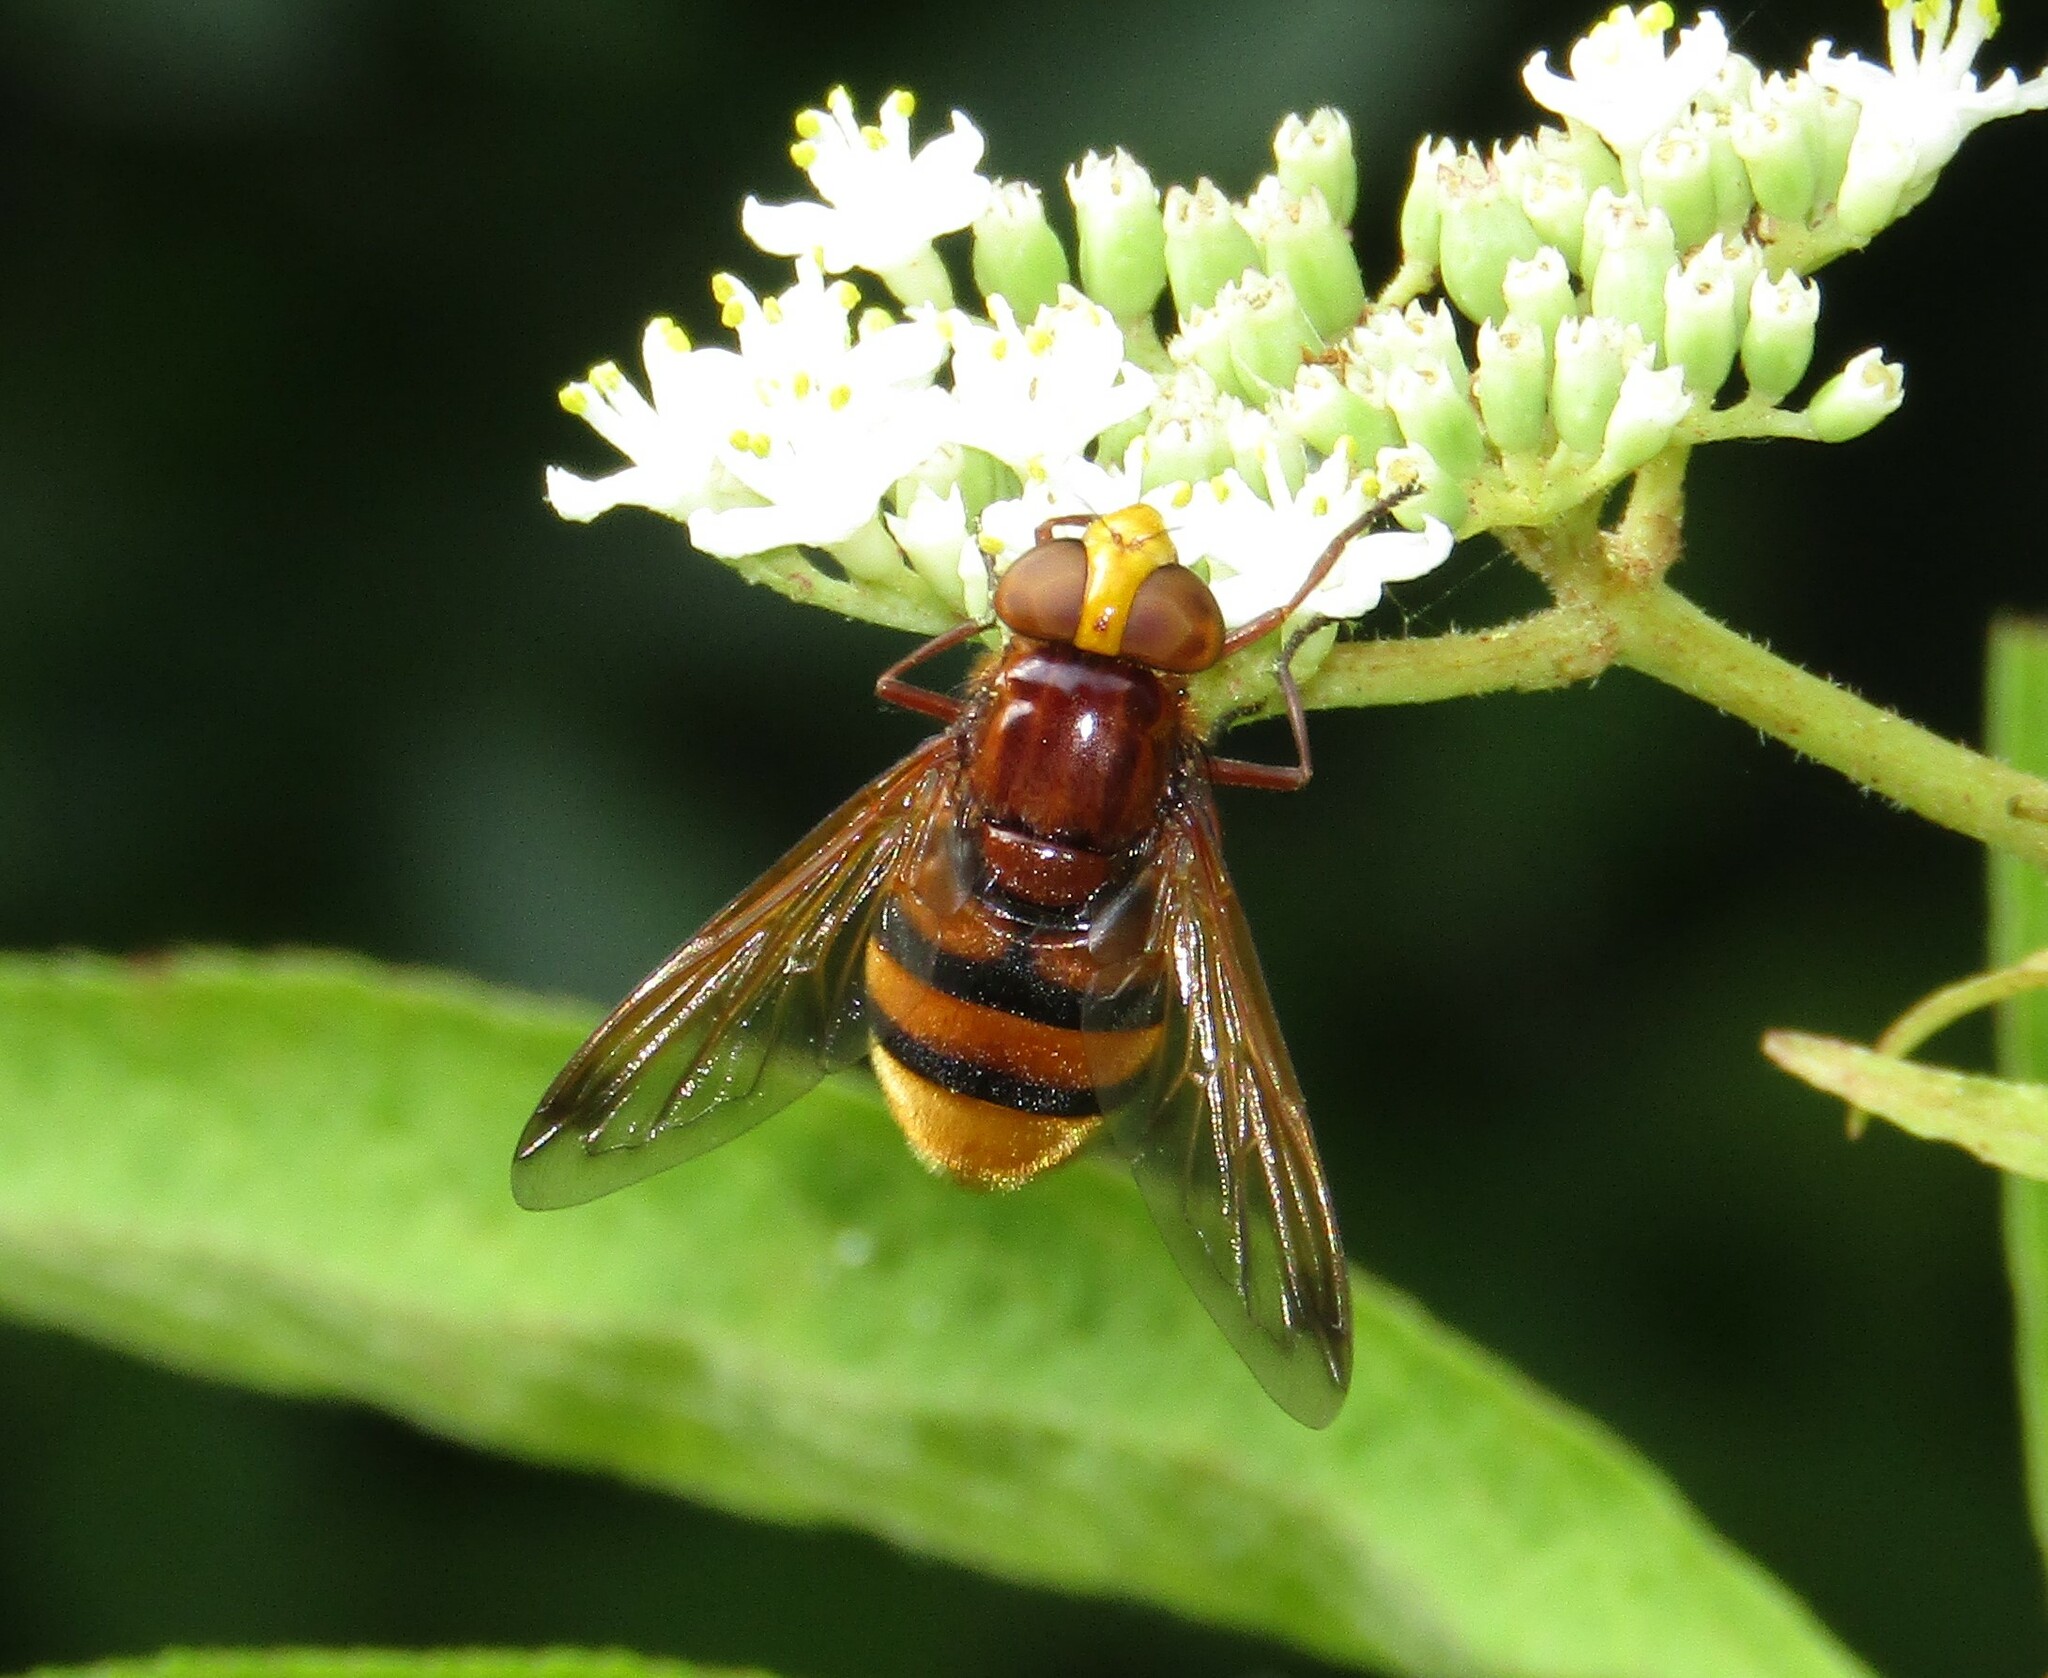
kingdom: Animalia
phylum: Arthropoda
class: Insecta
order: Diptera
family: Syrphidae
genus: Volucella
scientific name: Volucella zonaria
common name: Hornet hoverfly
